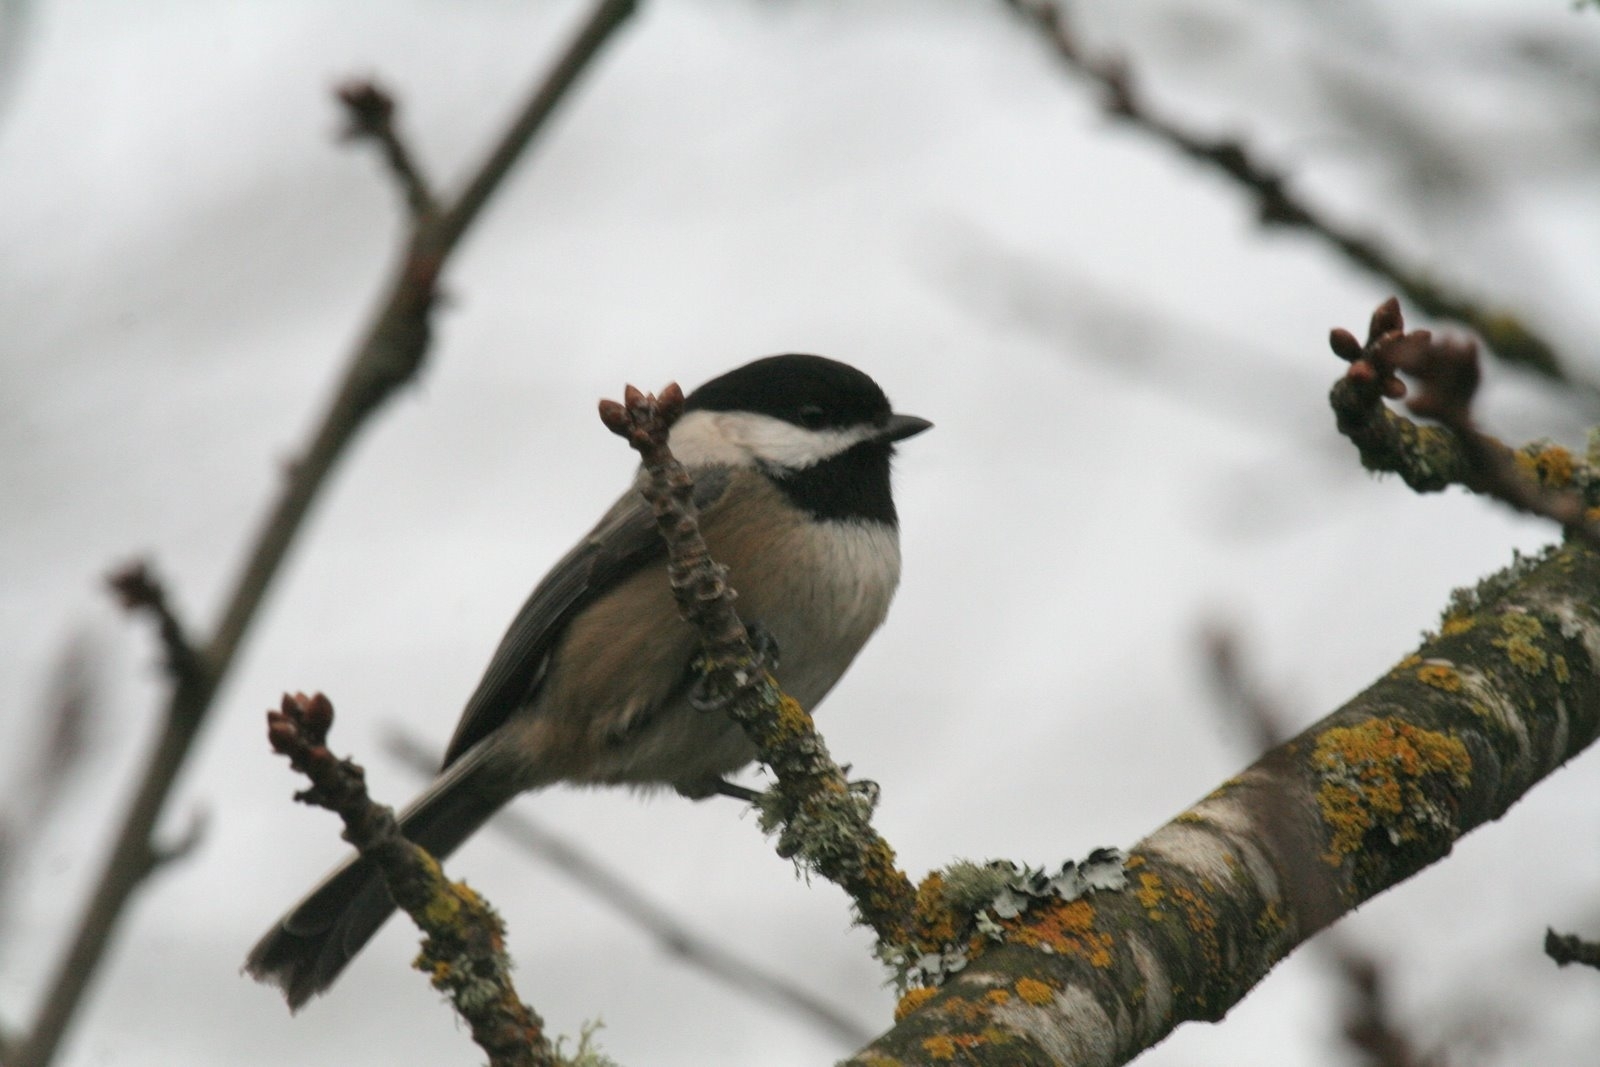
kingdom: Animalia
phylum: Chordata
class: Aves
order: Passeriformes
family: Paridae
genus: Poecile
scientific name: Poecile atricapillus
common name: Black-capped chickadee
